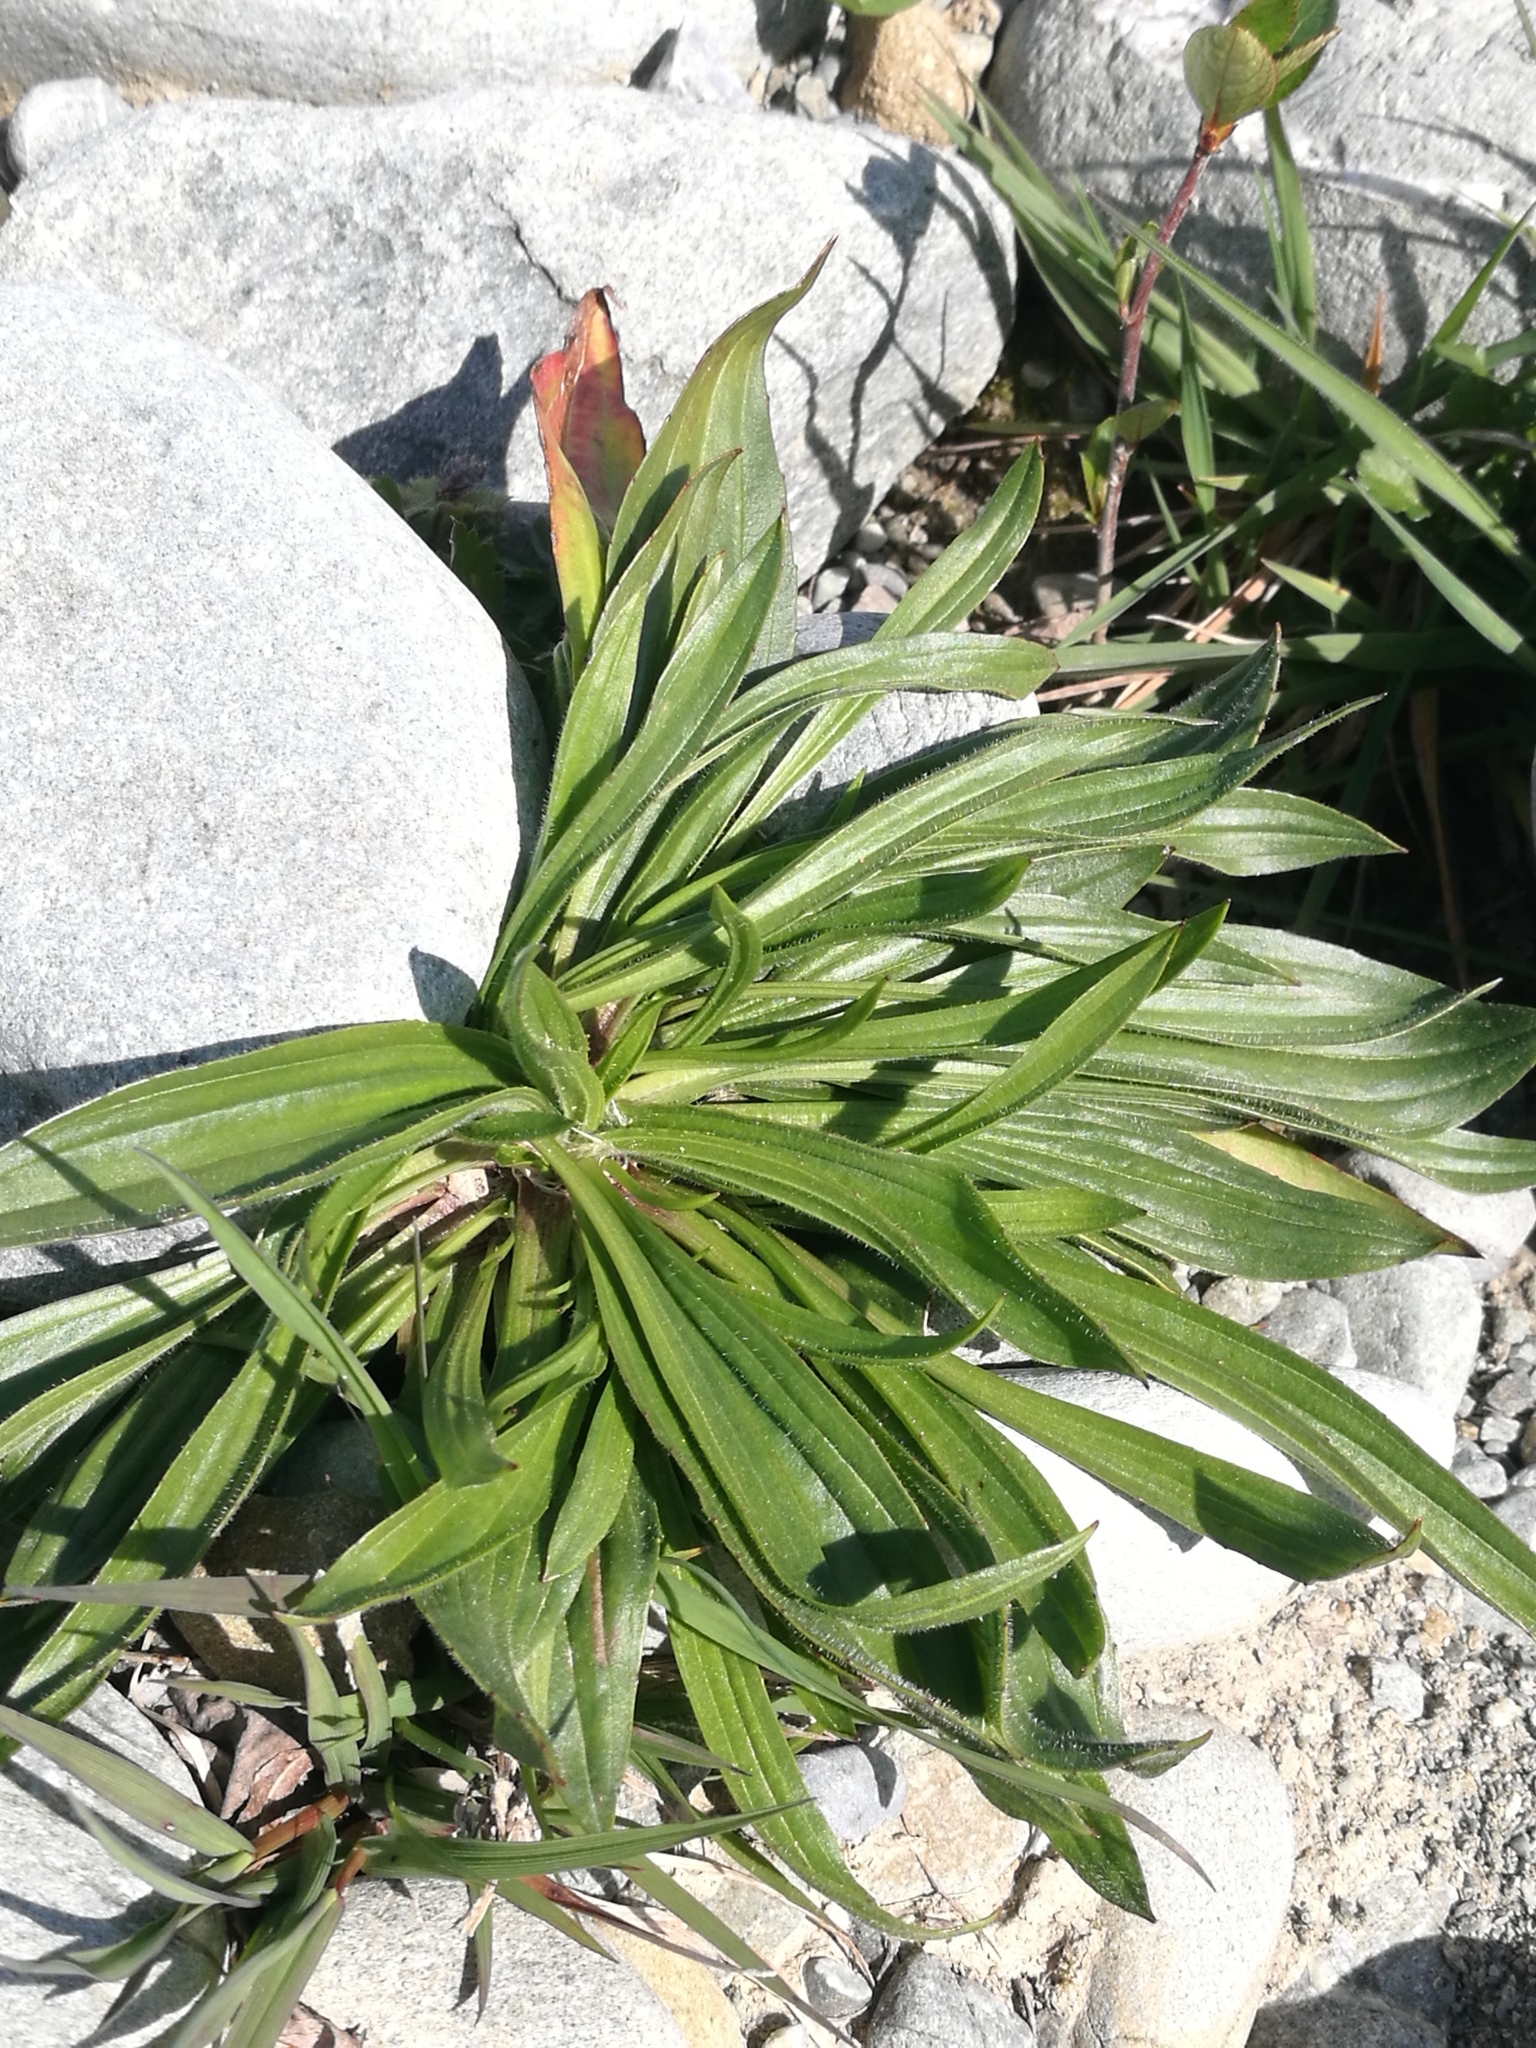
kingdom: Plantae
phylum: Tracheophyta
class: Magnoliopsida
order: Lamiales
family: Plantaginaceae
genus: Plantago
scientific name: Plantago lanceolata
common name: Ribwort plantain
